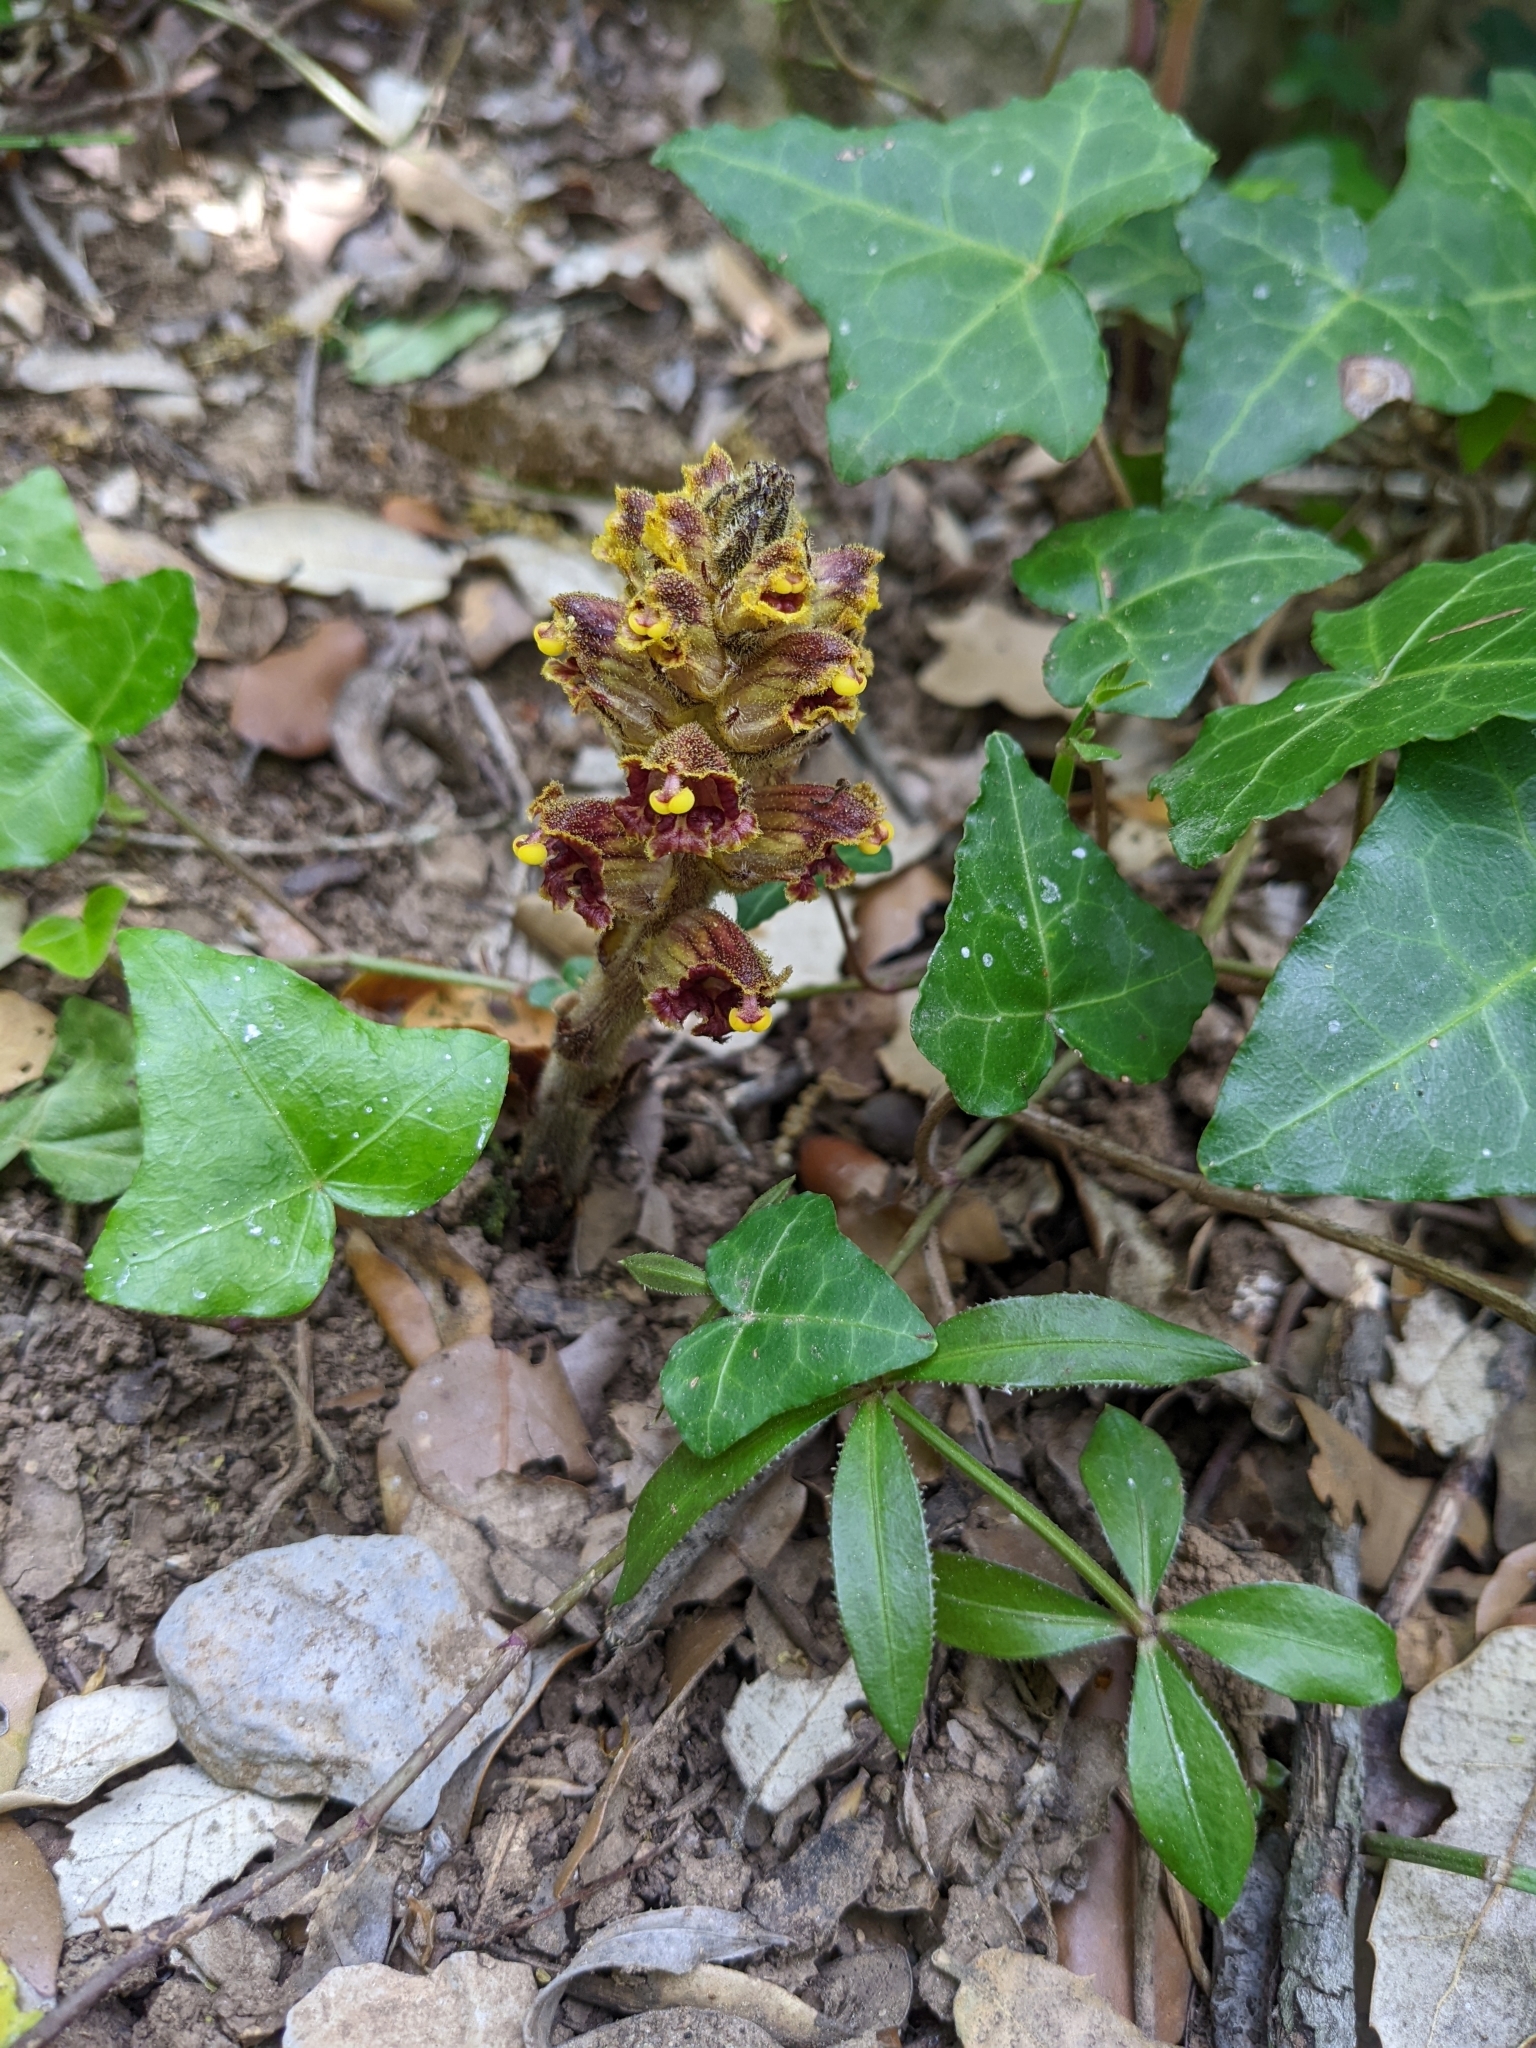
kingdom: Plantae
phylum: Tracheophyta
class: Magnoliopsida
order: Lamiales
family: Orobanchaceae
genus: Orobanche
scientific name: Orobanche gracilis
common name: Slender broomrape
